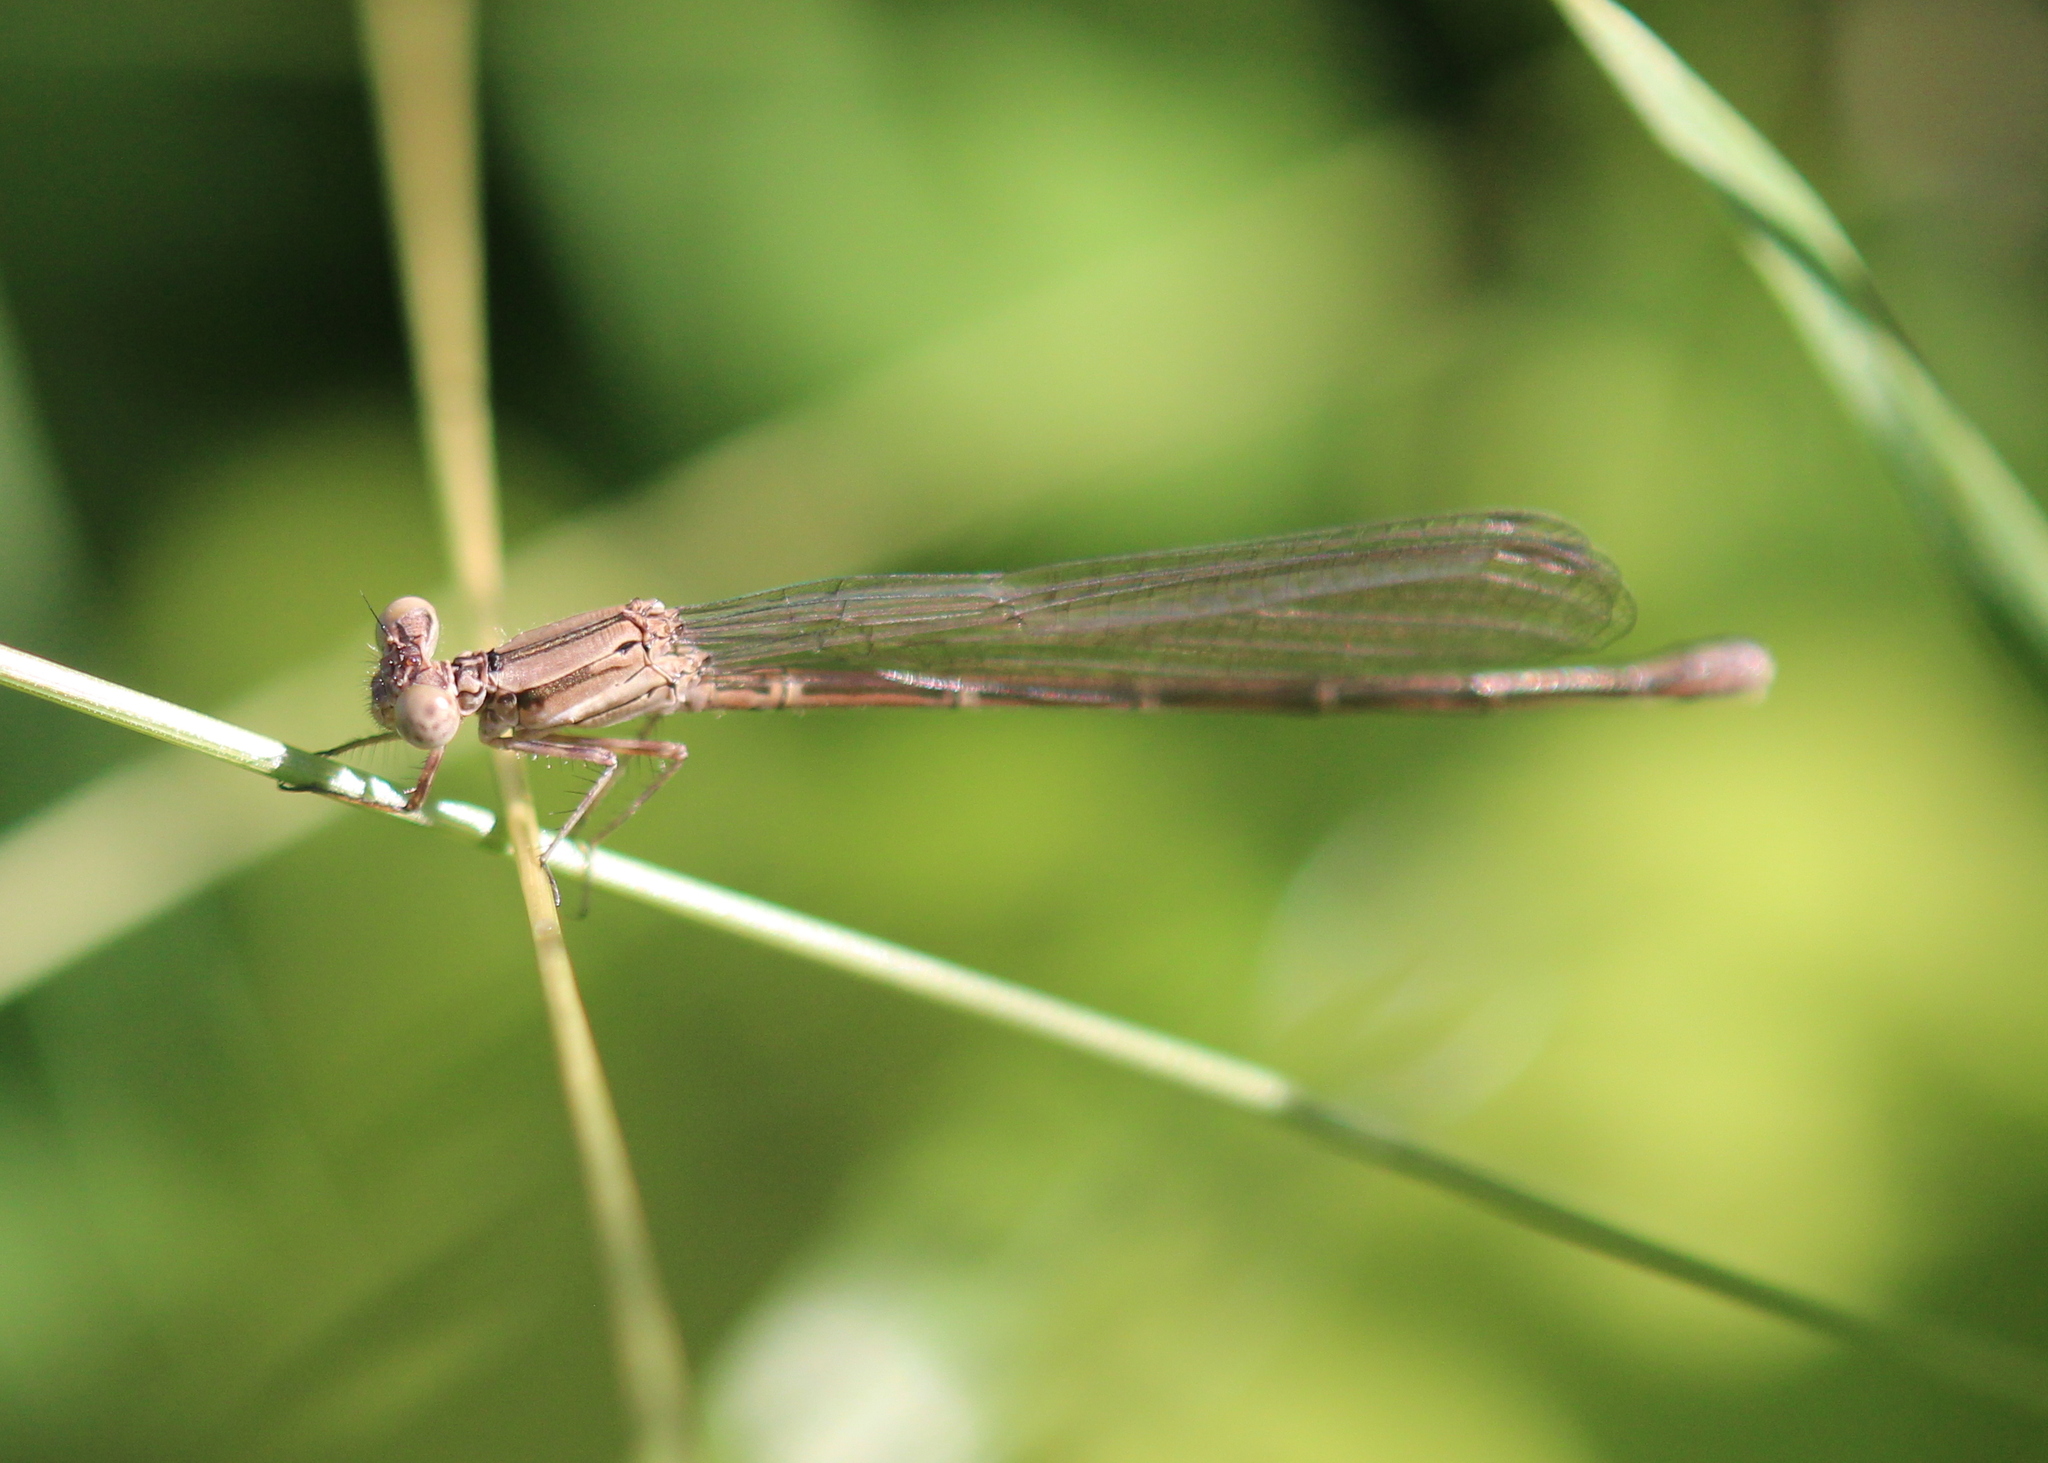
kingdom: Animalia
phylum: Arthropoda
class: Insecta
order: Odonata
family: Coenagrionidae
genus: Argia
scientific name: Argia fumipennis
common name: Variable dancer
